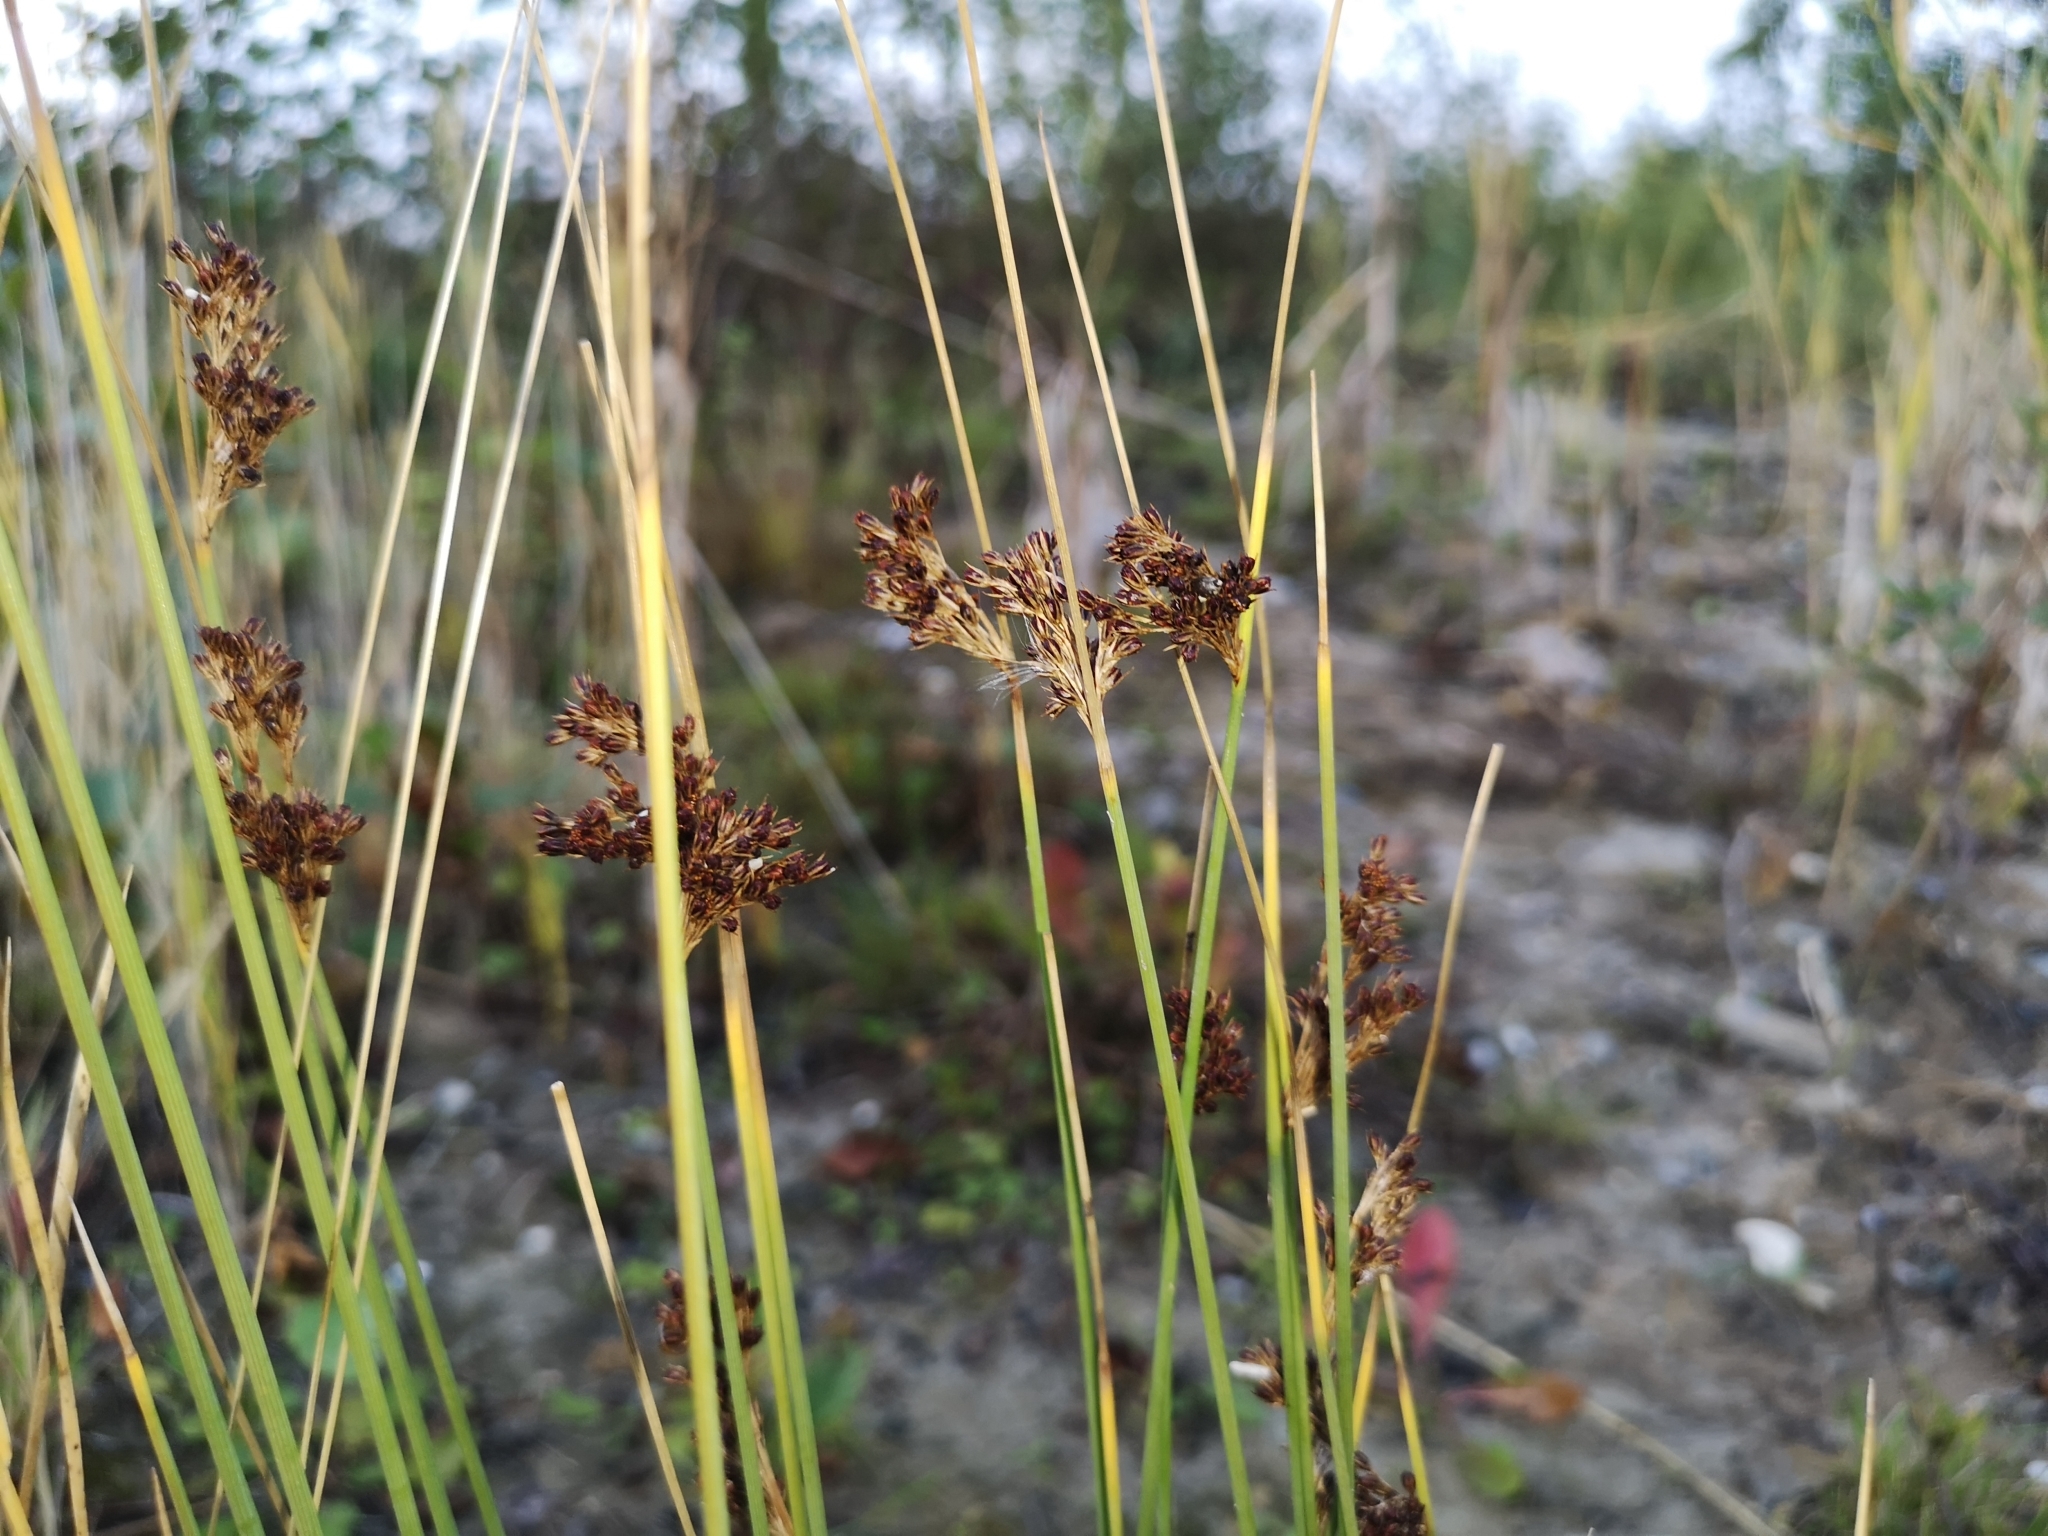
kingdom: Plantae
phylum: Tracheophyta
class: Liliopsida
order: Poales
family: Juncaceae
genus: Juncus
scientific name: Juncus inflexus
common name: Hard rush
